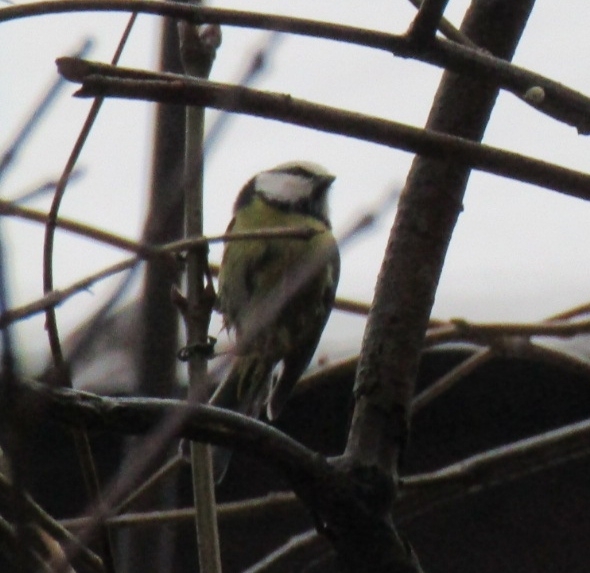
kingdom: Animalia
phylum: Chordata
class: Aves
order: Passeriformes
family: Paridae
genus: Cyanistes
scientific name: Cyanistes caeruleus
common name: Eurasian blue tit
